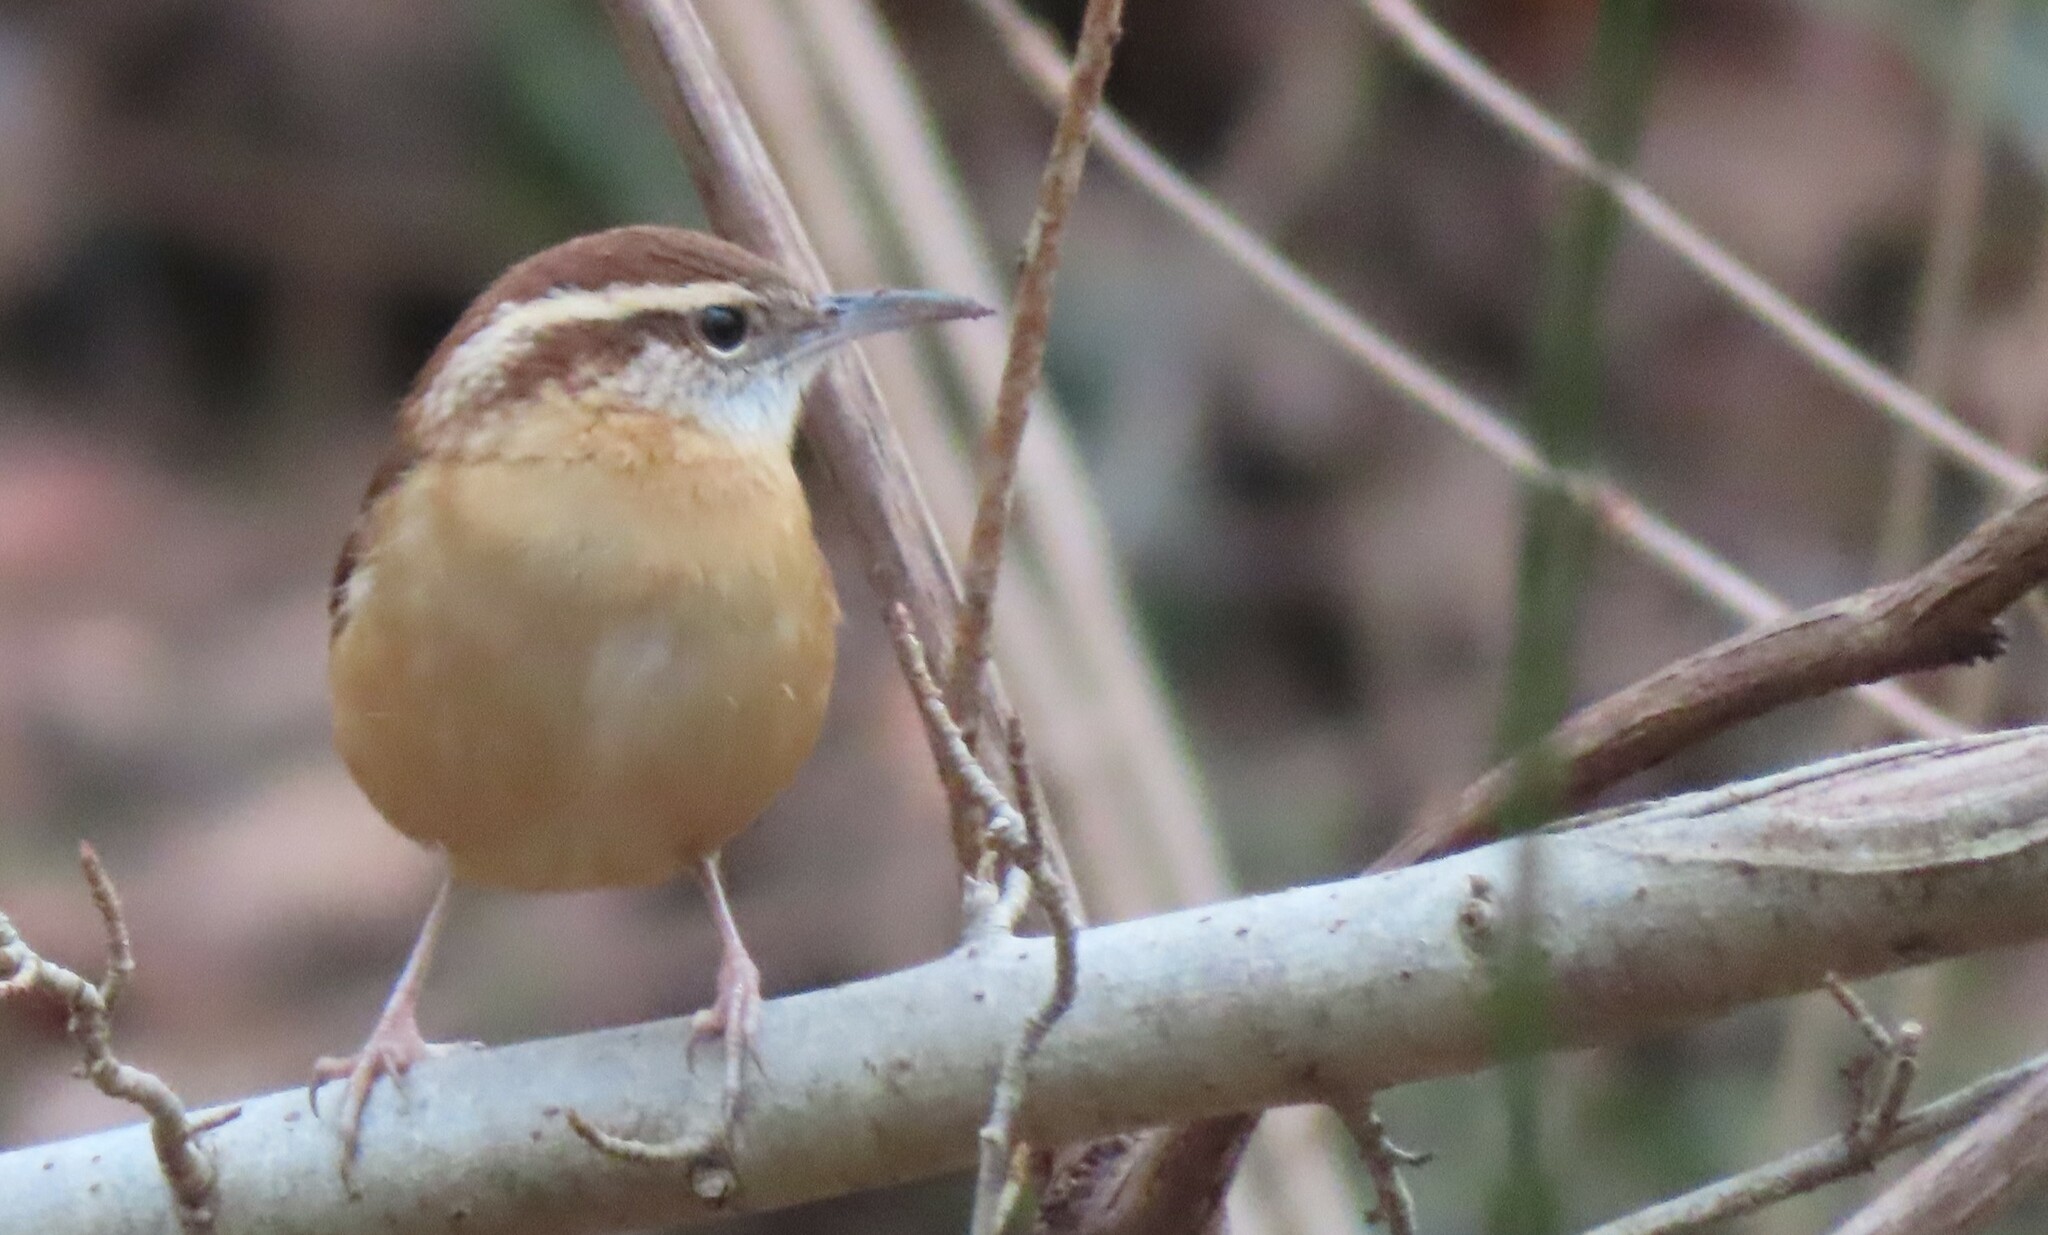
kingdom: Animalia
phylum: Chordata
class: Aves
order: Passeriformes
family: Troglodytidae
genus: Thryothorus
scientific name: Thryothorus ludovicianus
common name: Carolina wren
